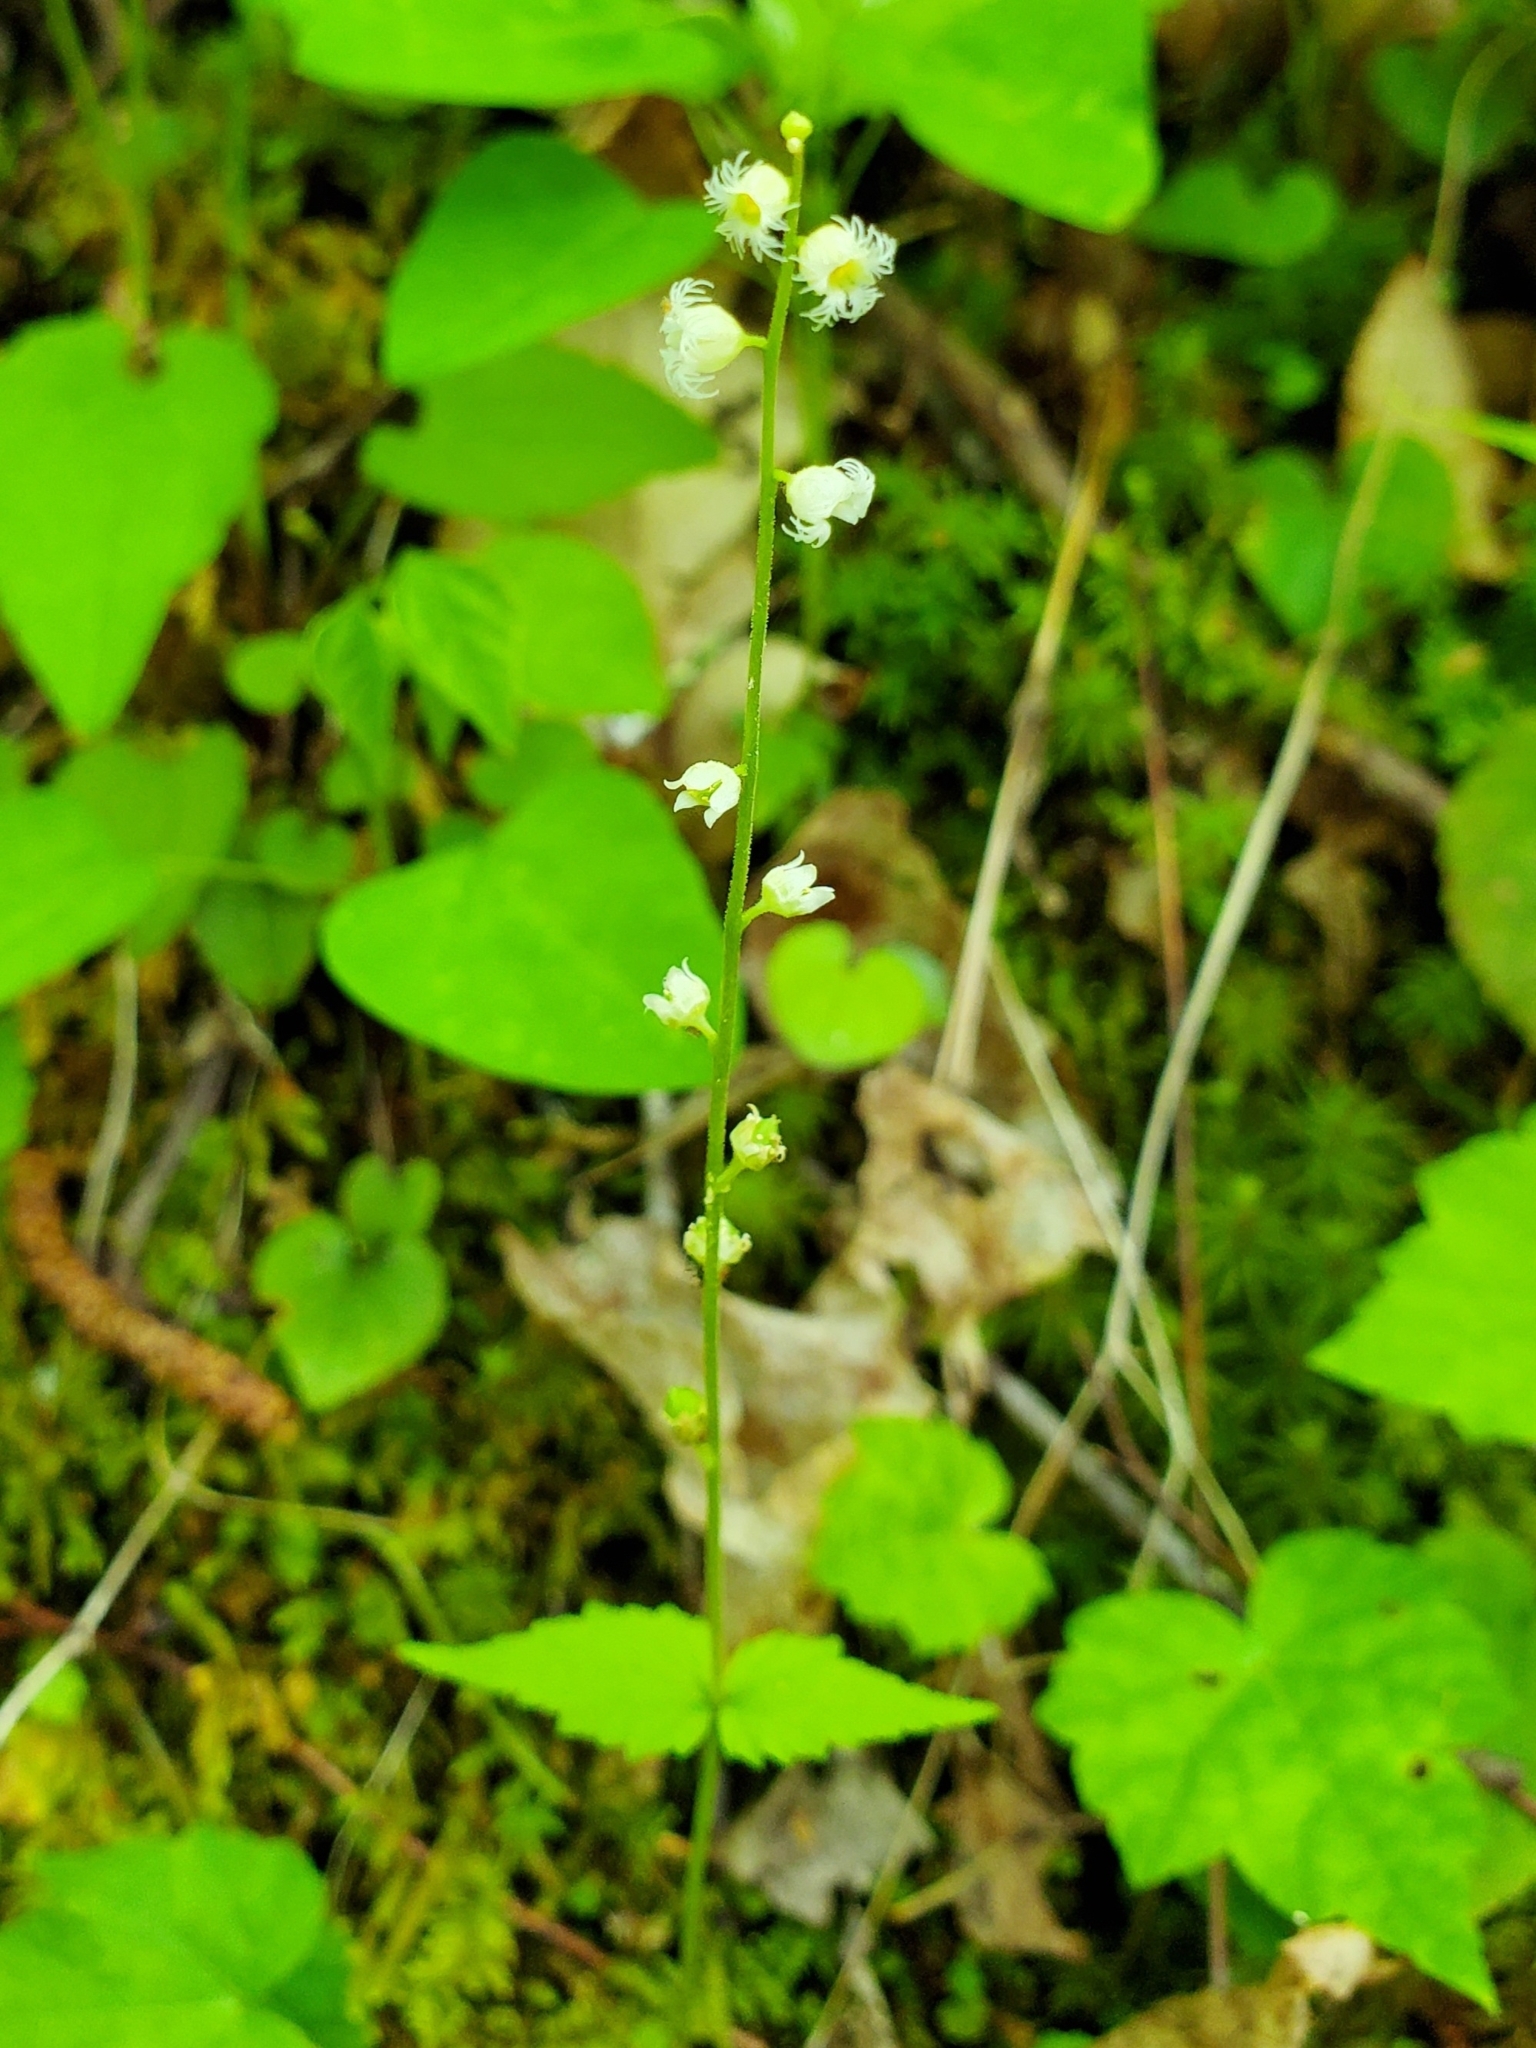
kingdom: Plantae
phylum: Tracheophyta
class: Magnoliopsida
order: Saxifragales
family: Saxifragaceae
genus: Mitella
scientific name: Mitella diphylla
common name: Coolwort
